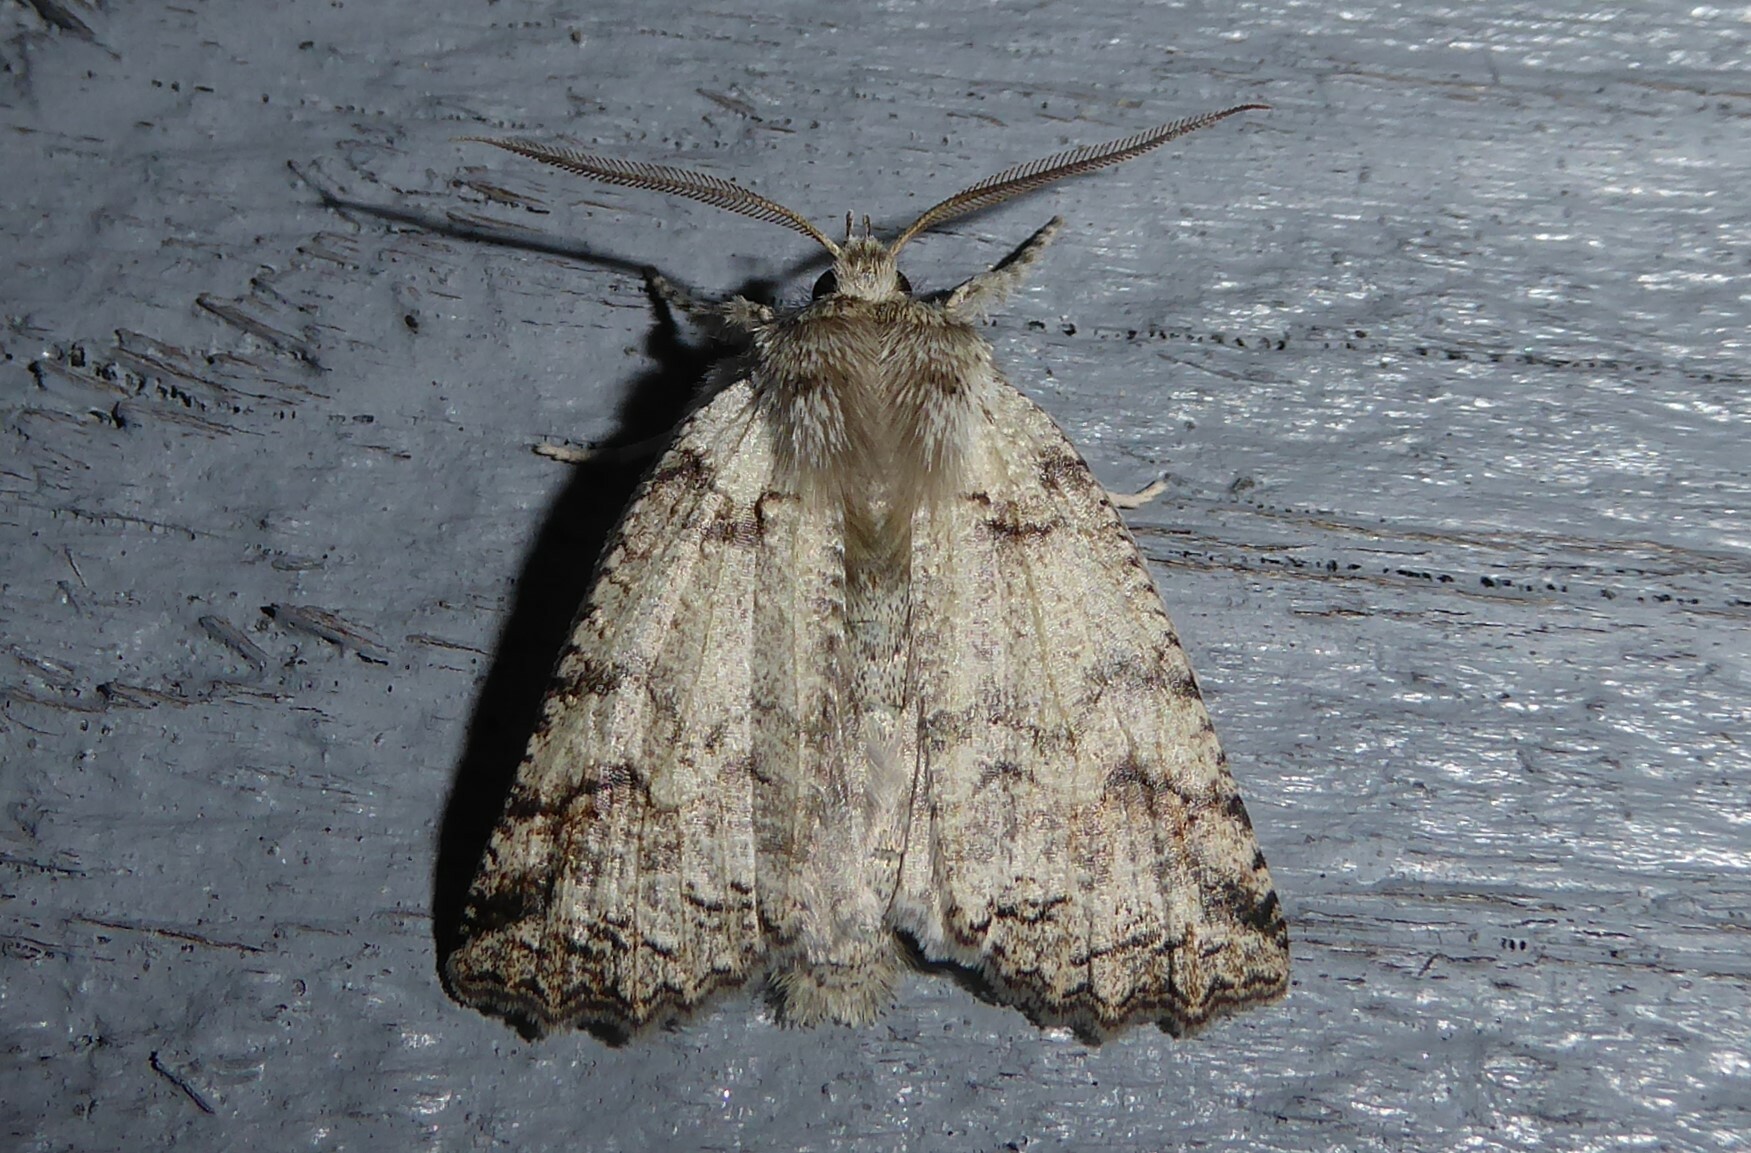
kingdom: Animalia
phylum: Arthropoda
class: Insecta
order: Lepidoptera
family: Geometridae
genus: Declana
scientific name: Declana floccosa
